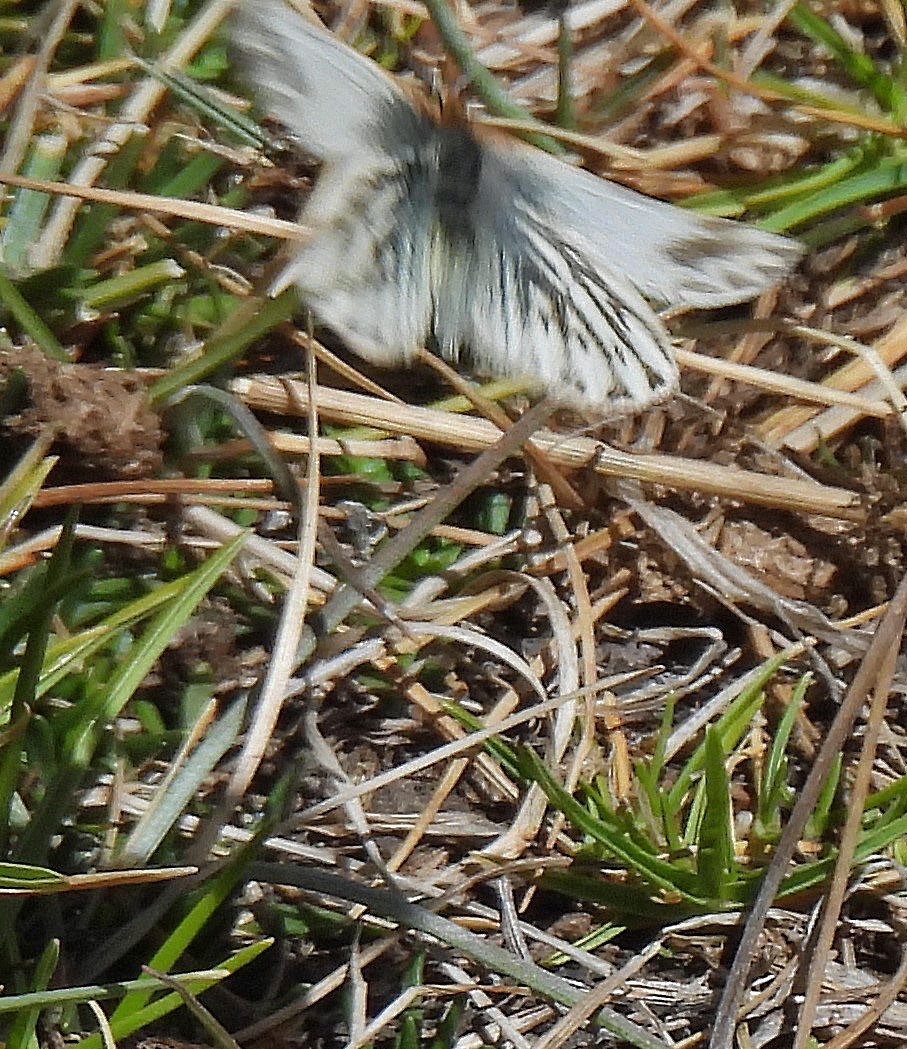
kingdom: Animalia
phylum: Arthropoda
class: Insecta
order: Lepidoptera
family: Pieridae
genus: Infraphulia
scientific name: Infraphulia ilyodes
